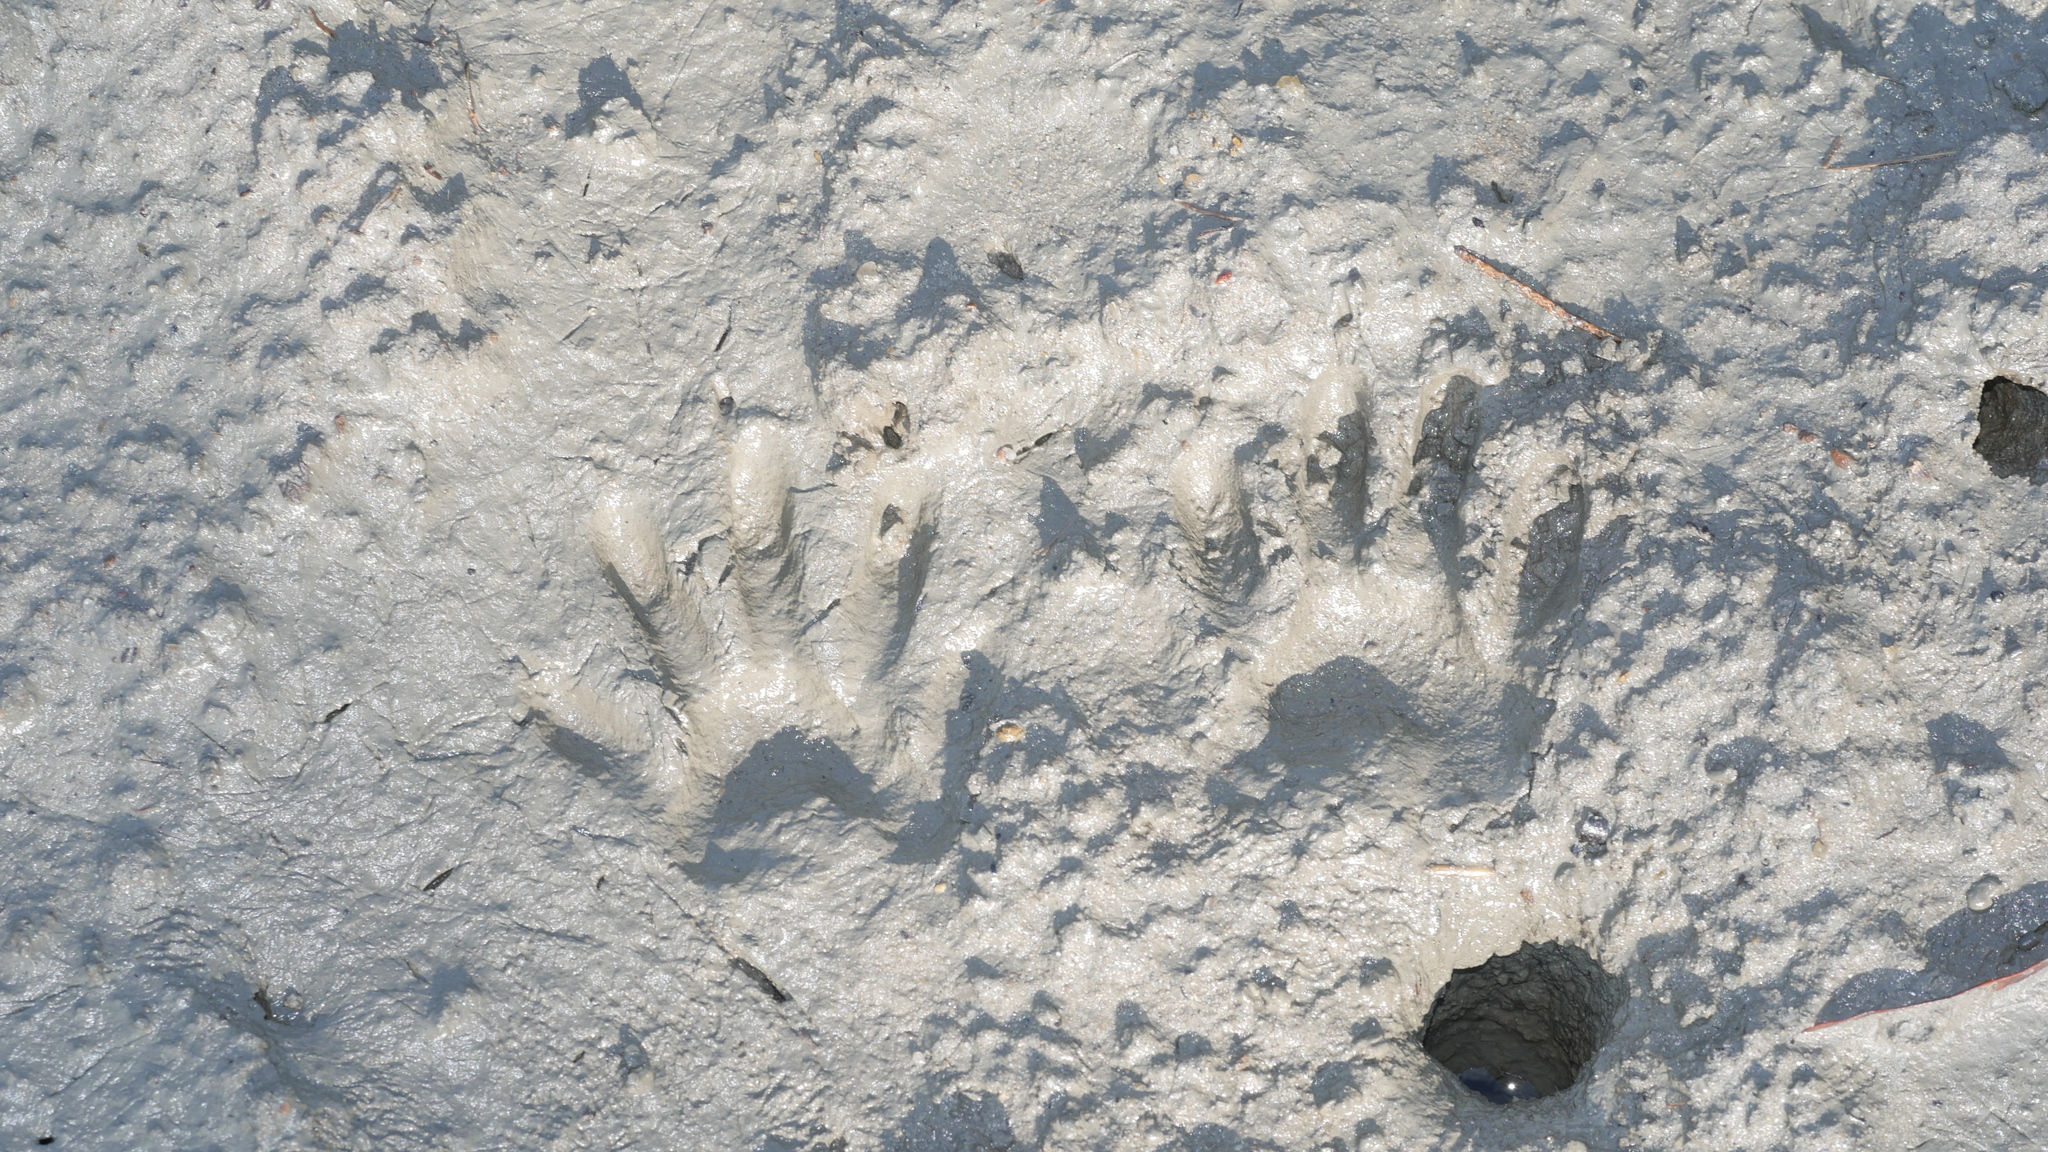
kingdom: Animalia
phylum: Chordata
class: Mammalia
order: Carnivora
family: Procyonidae
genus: Procyon
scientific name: Procyon lotor
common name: Raccoon
